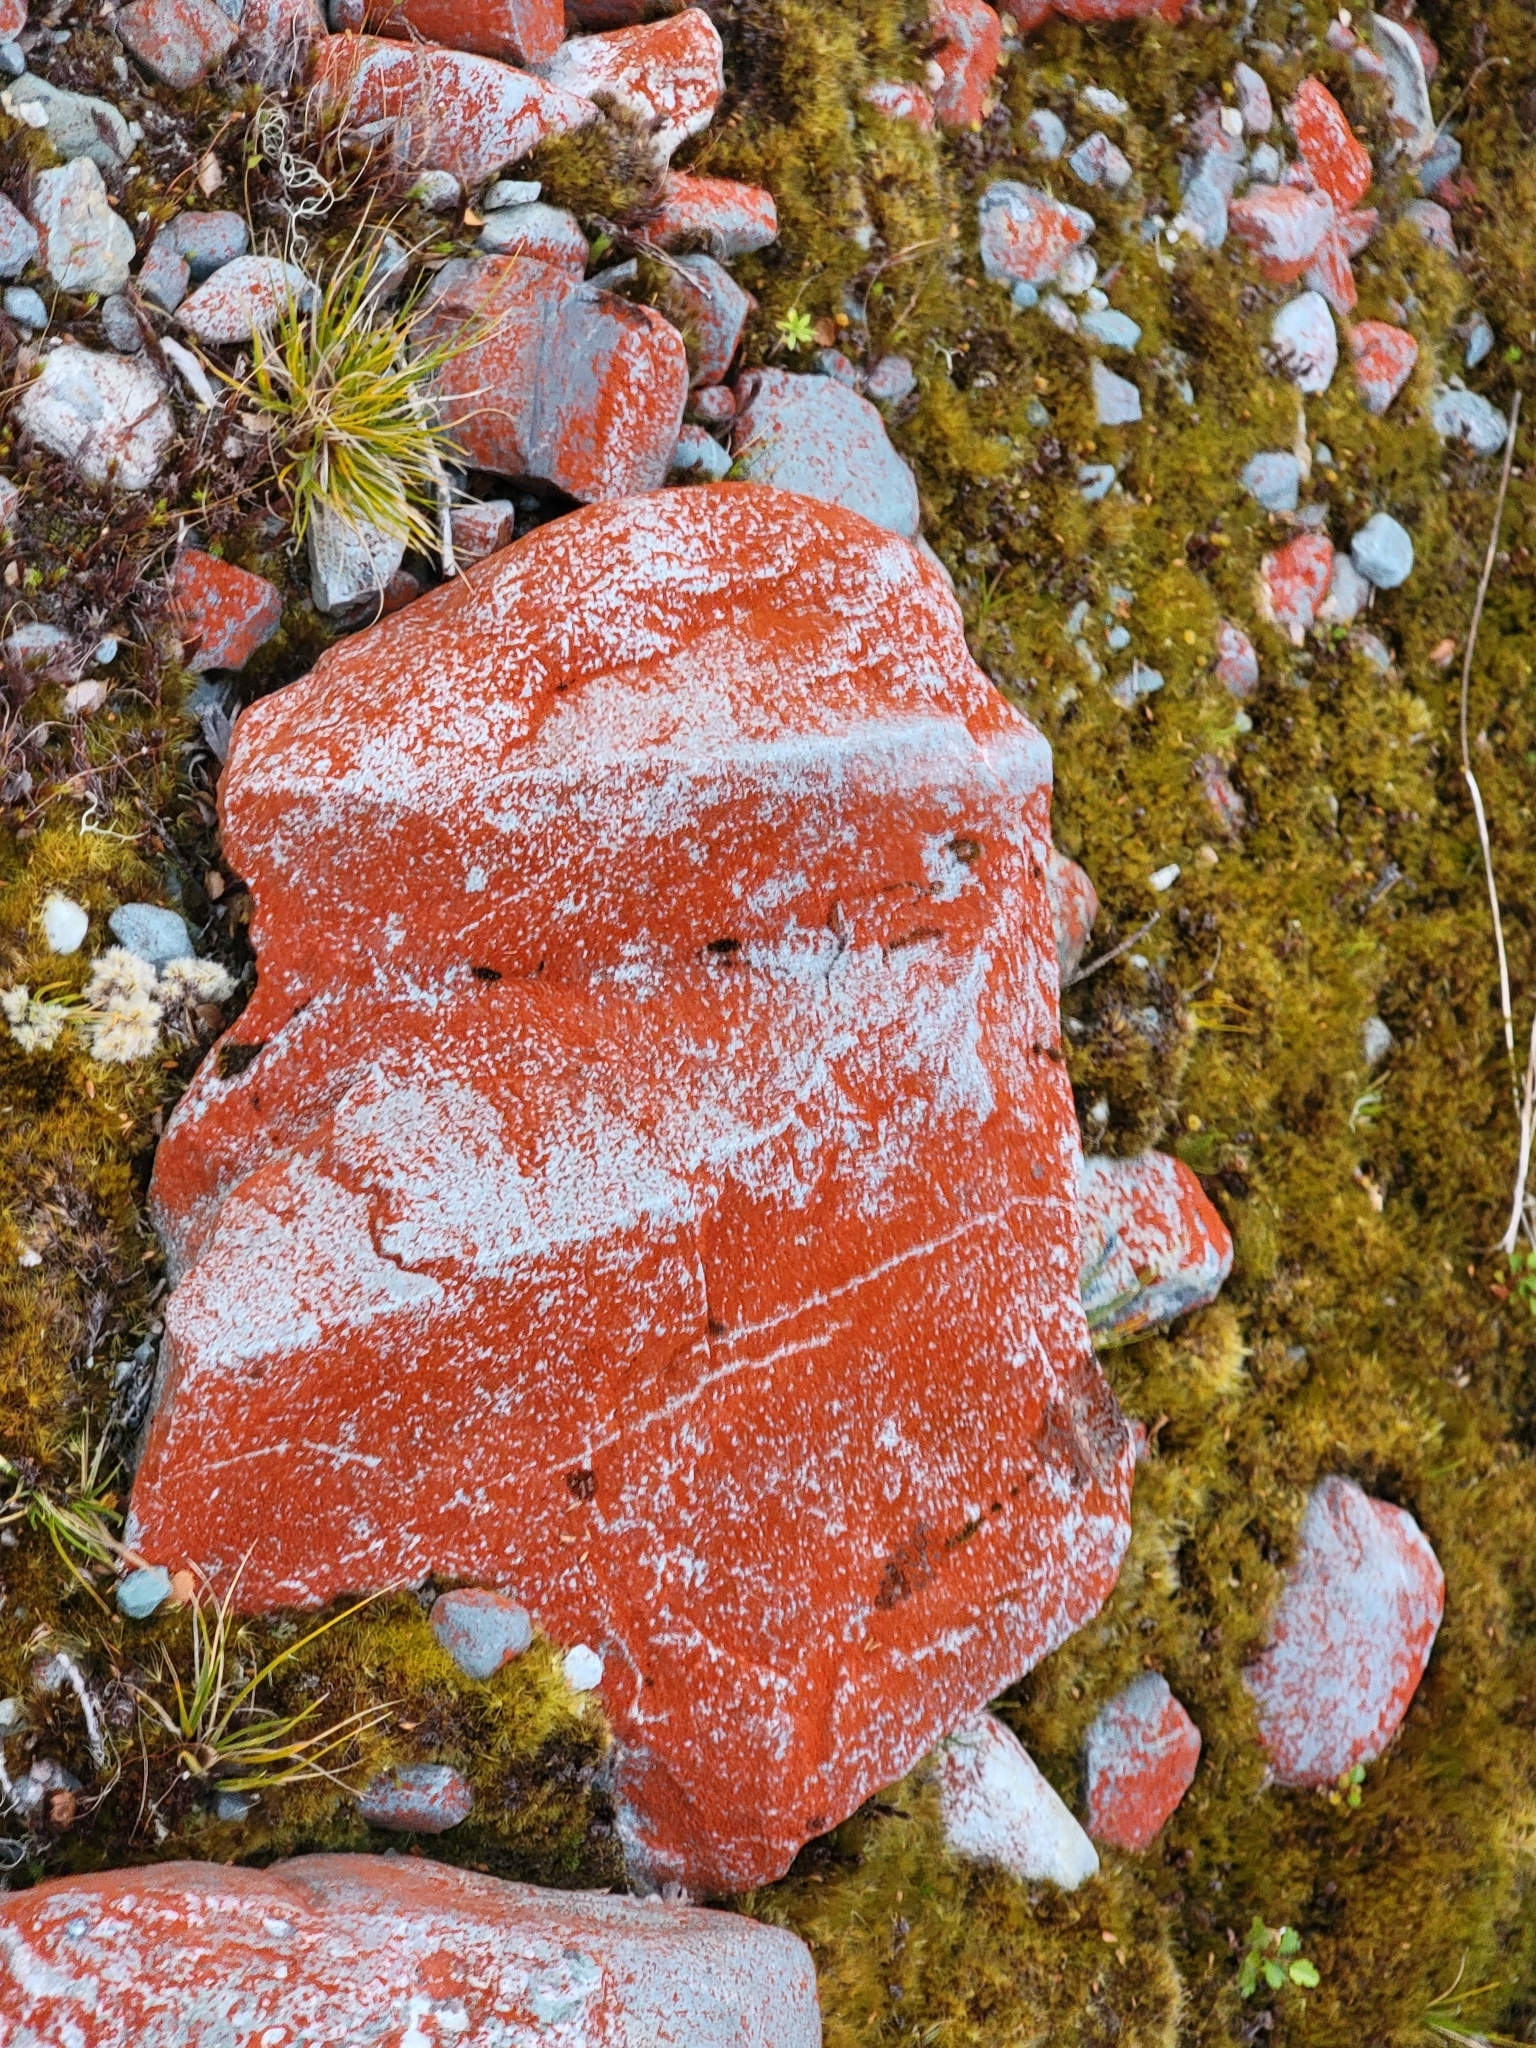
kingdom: Plantae
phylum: Chlorophyta
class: Ulvophyceae
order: Trentepohliales
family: Trentepohliaceae
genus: Trentepohlia
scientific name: Trentepohlia aurea
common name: Orange rock hair
